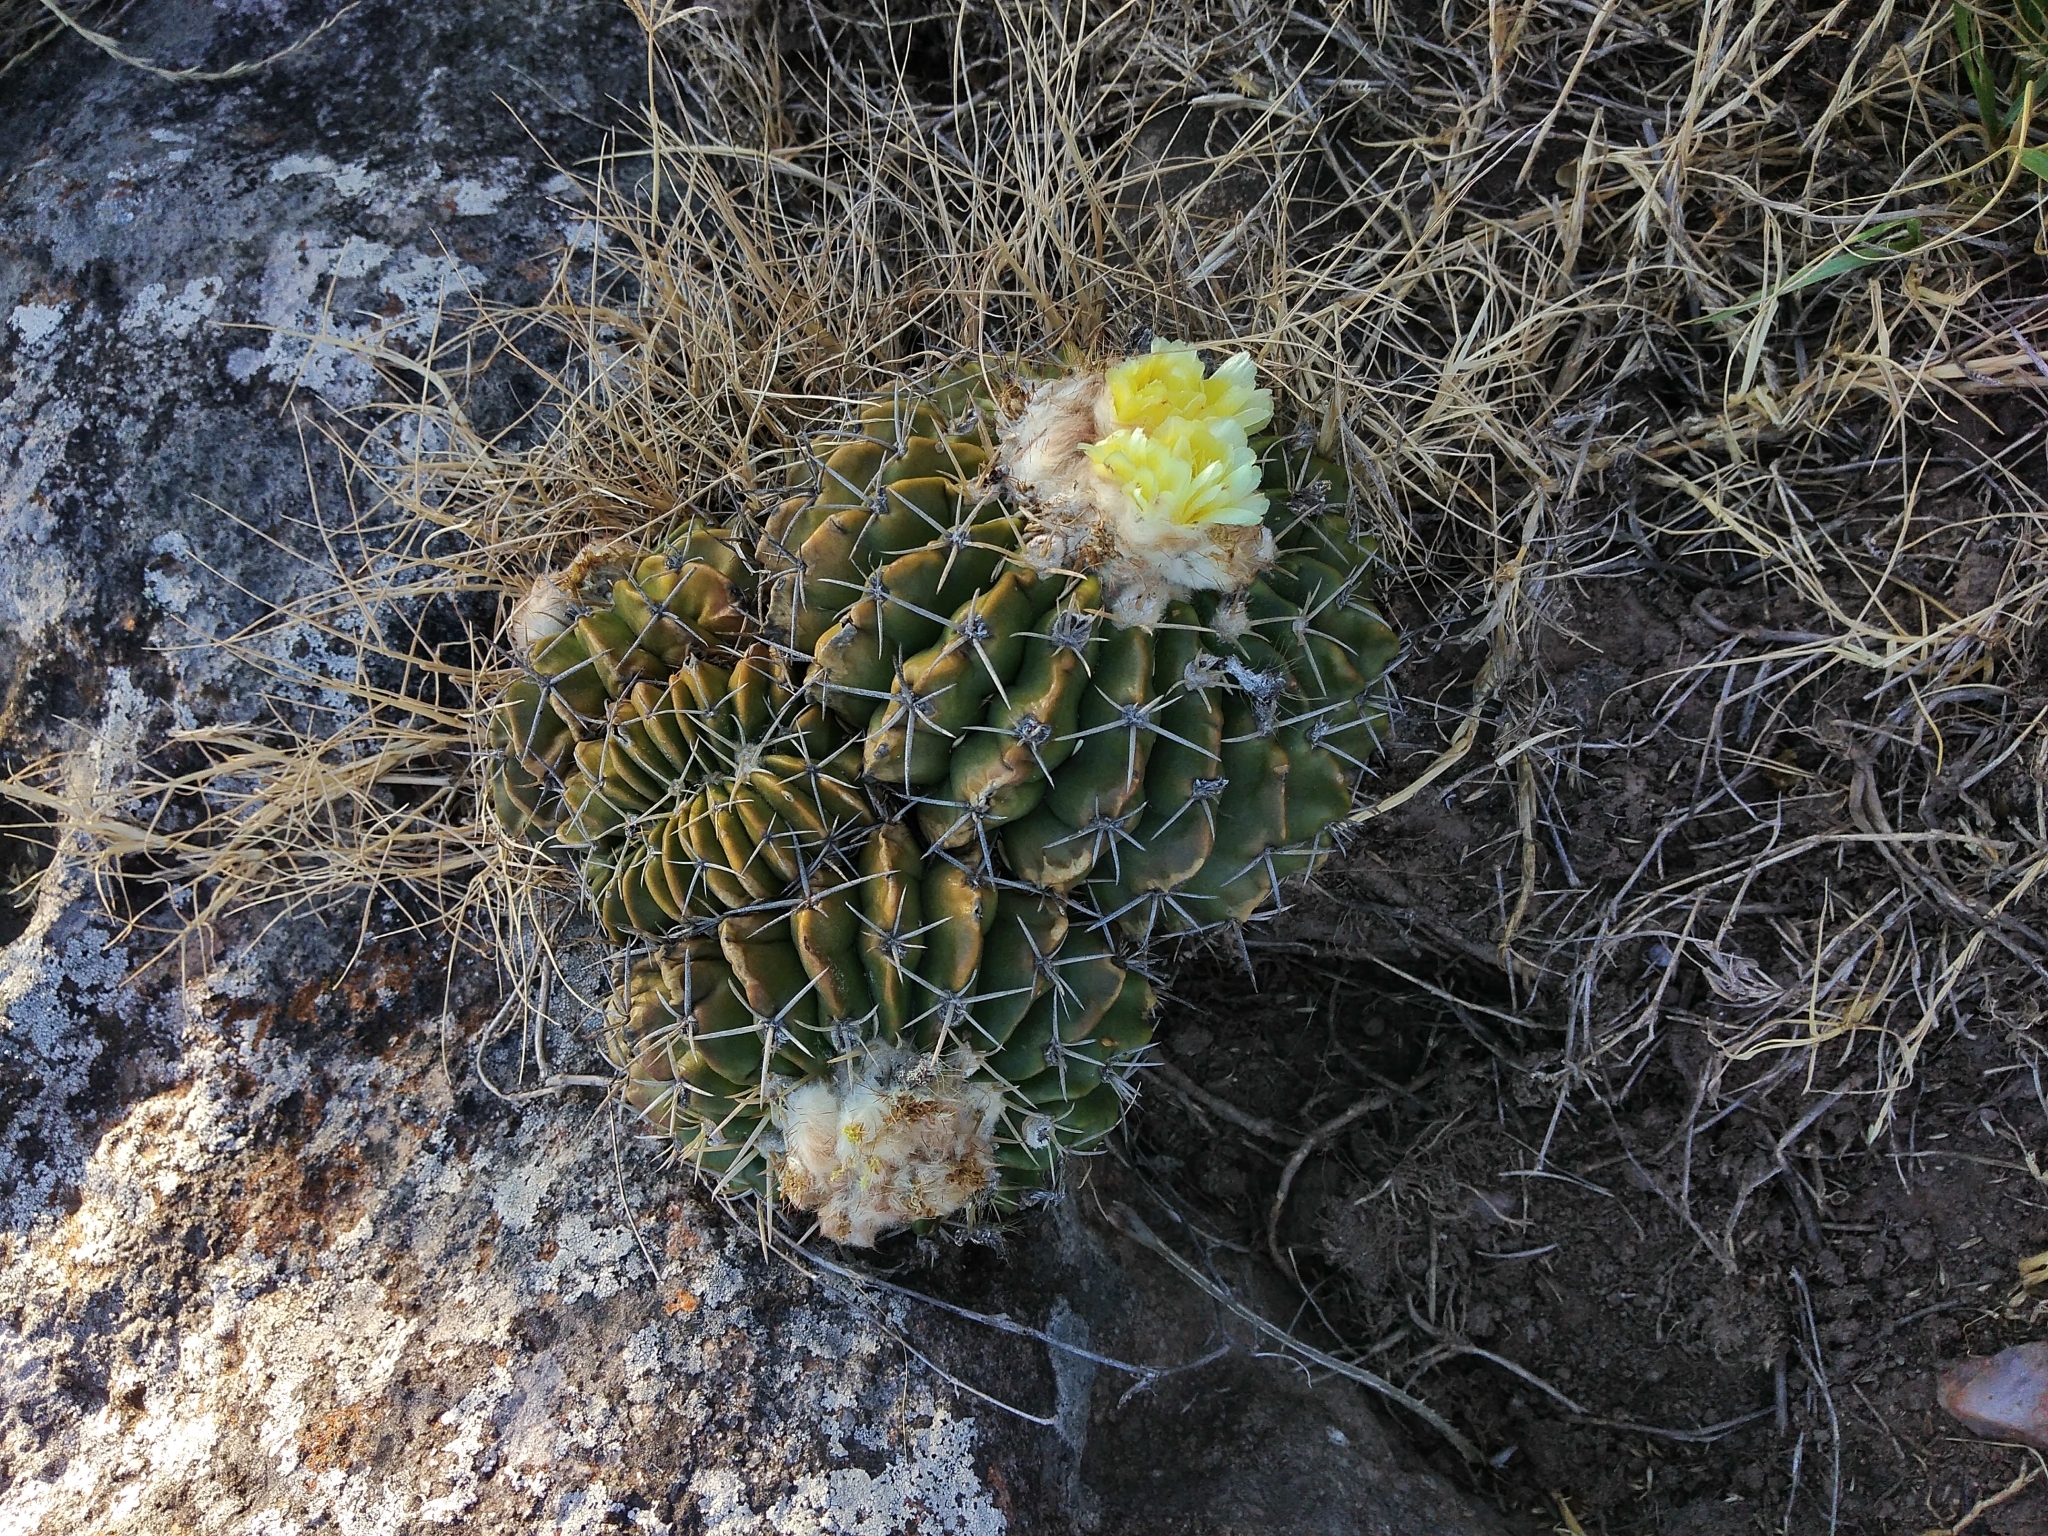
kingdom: Plantae
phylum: Tracheophyta
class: Magnoliopsida
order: Caryophyllales
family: Cactaceae
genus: Parodia
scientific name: Parodia erinacea
